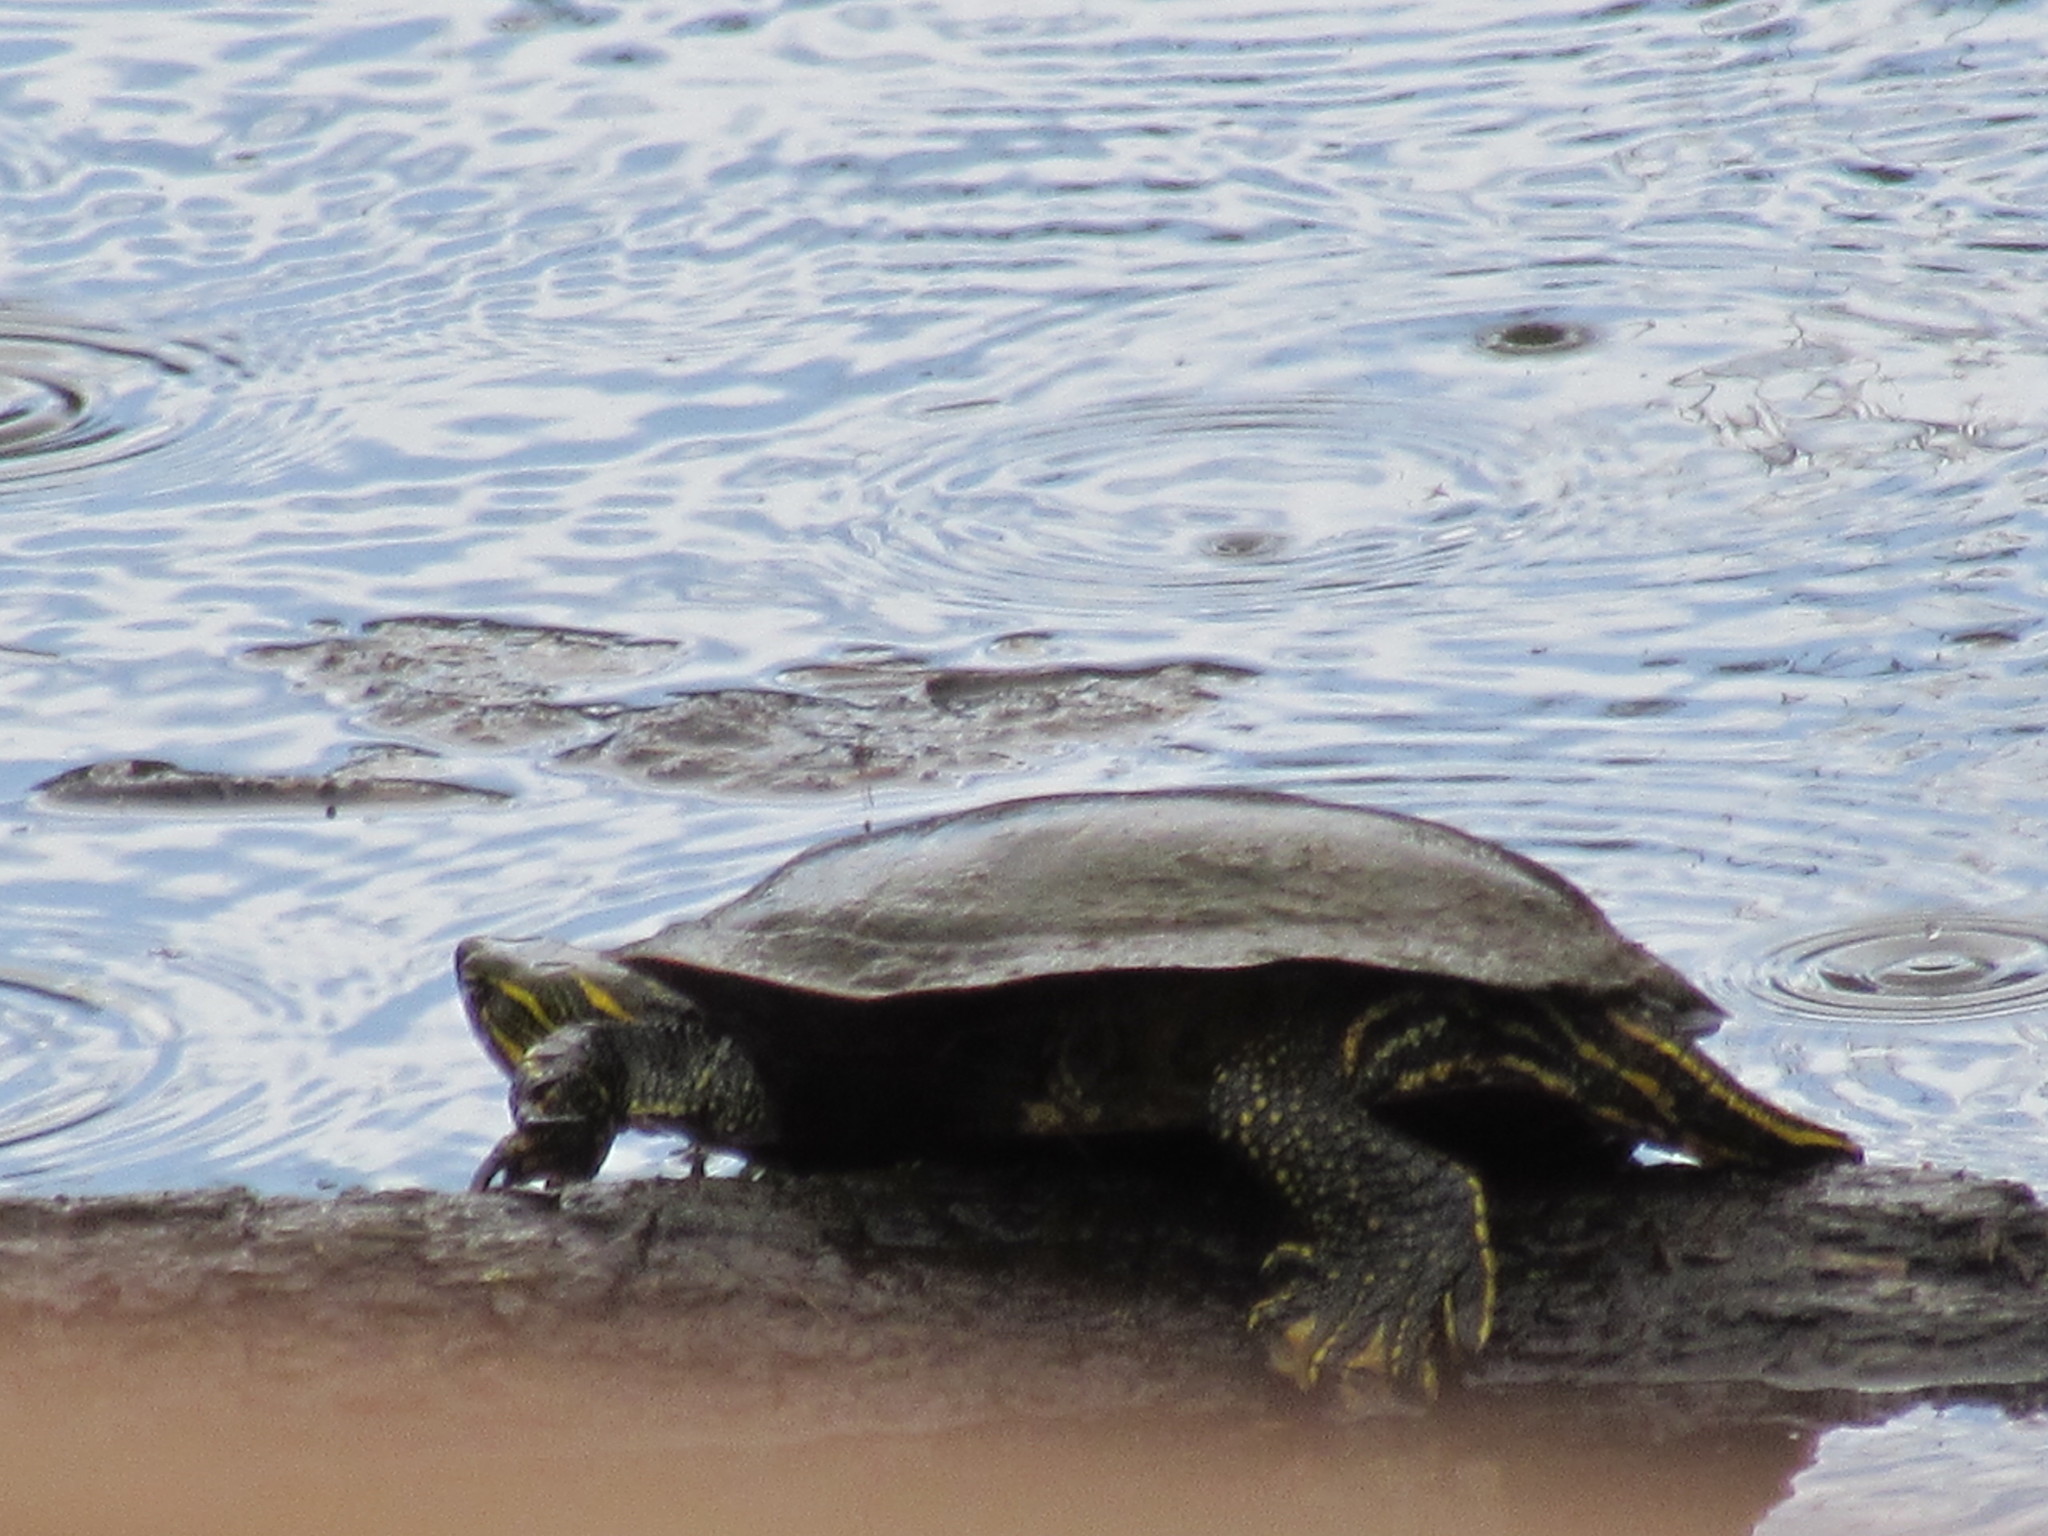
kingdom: Animalia
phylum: Chordata
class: Testudines
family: Emydidae
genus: Chrysemys
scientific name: Chrysemys picta
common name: Painted turtle
